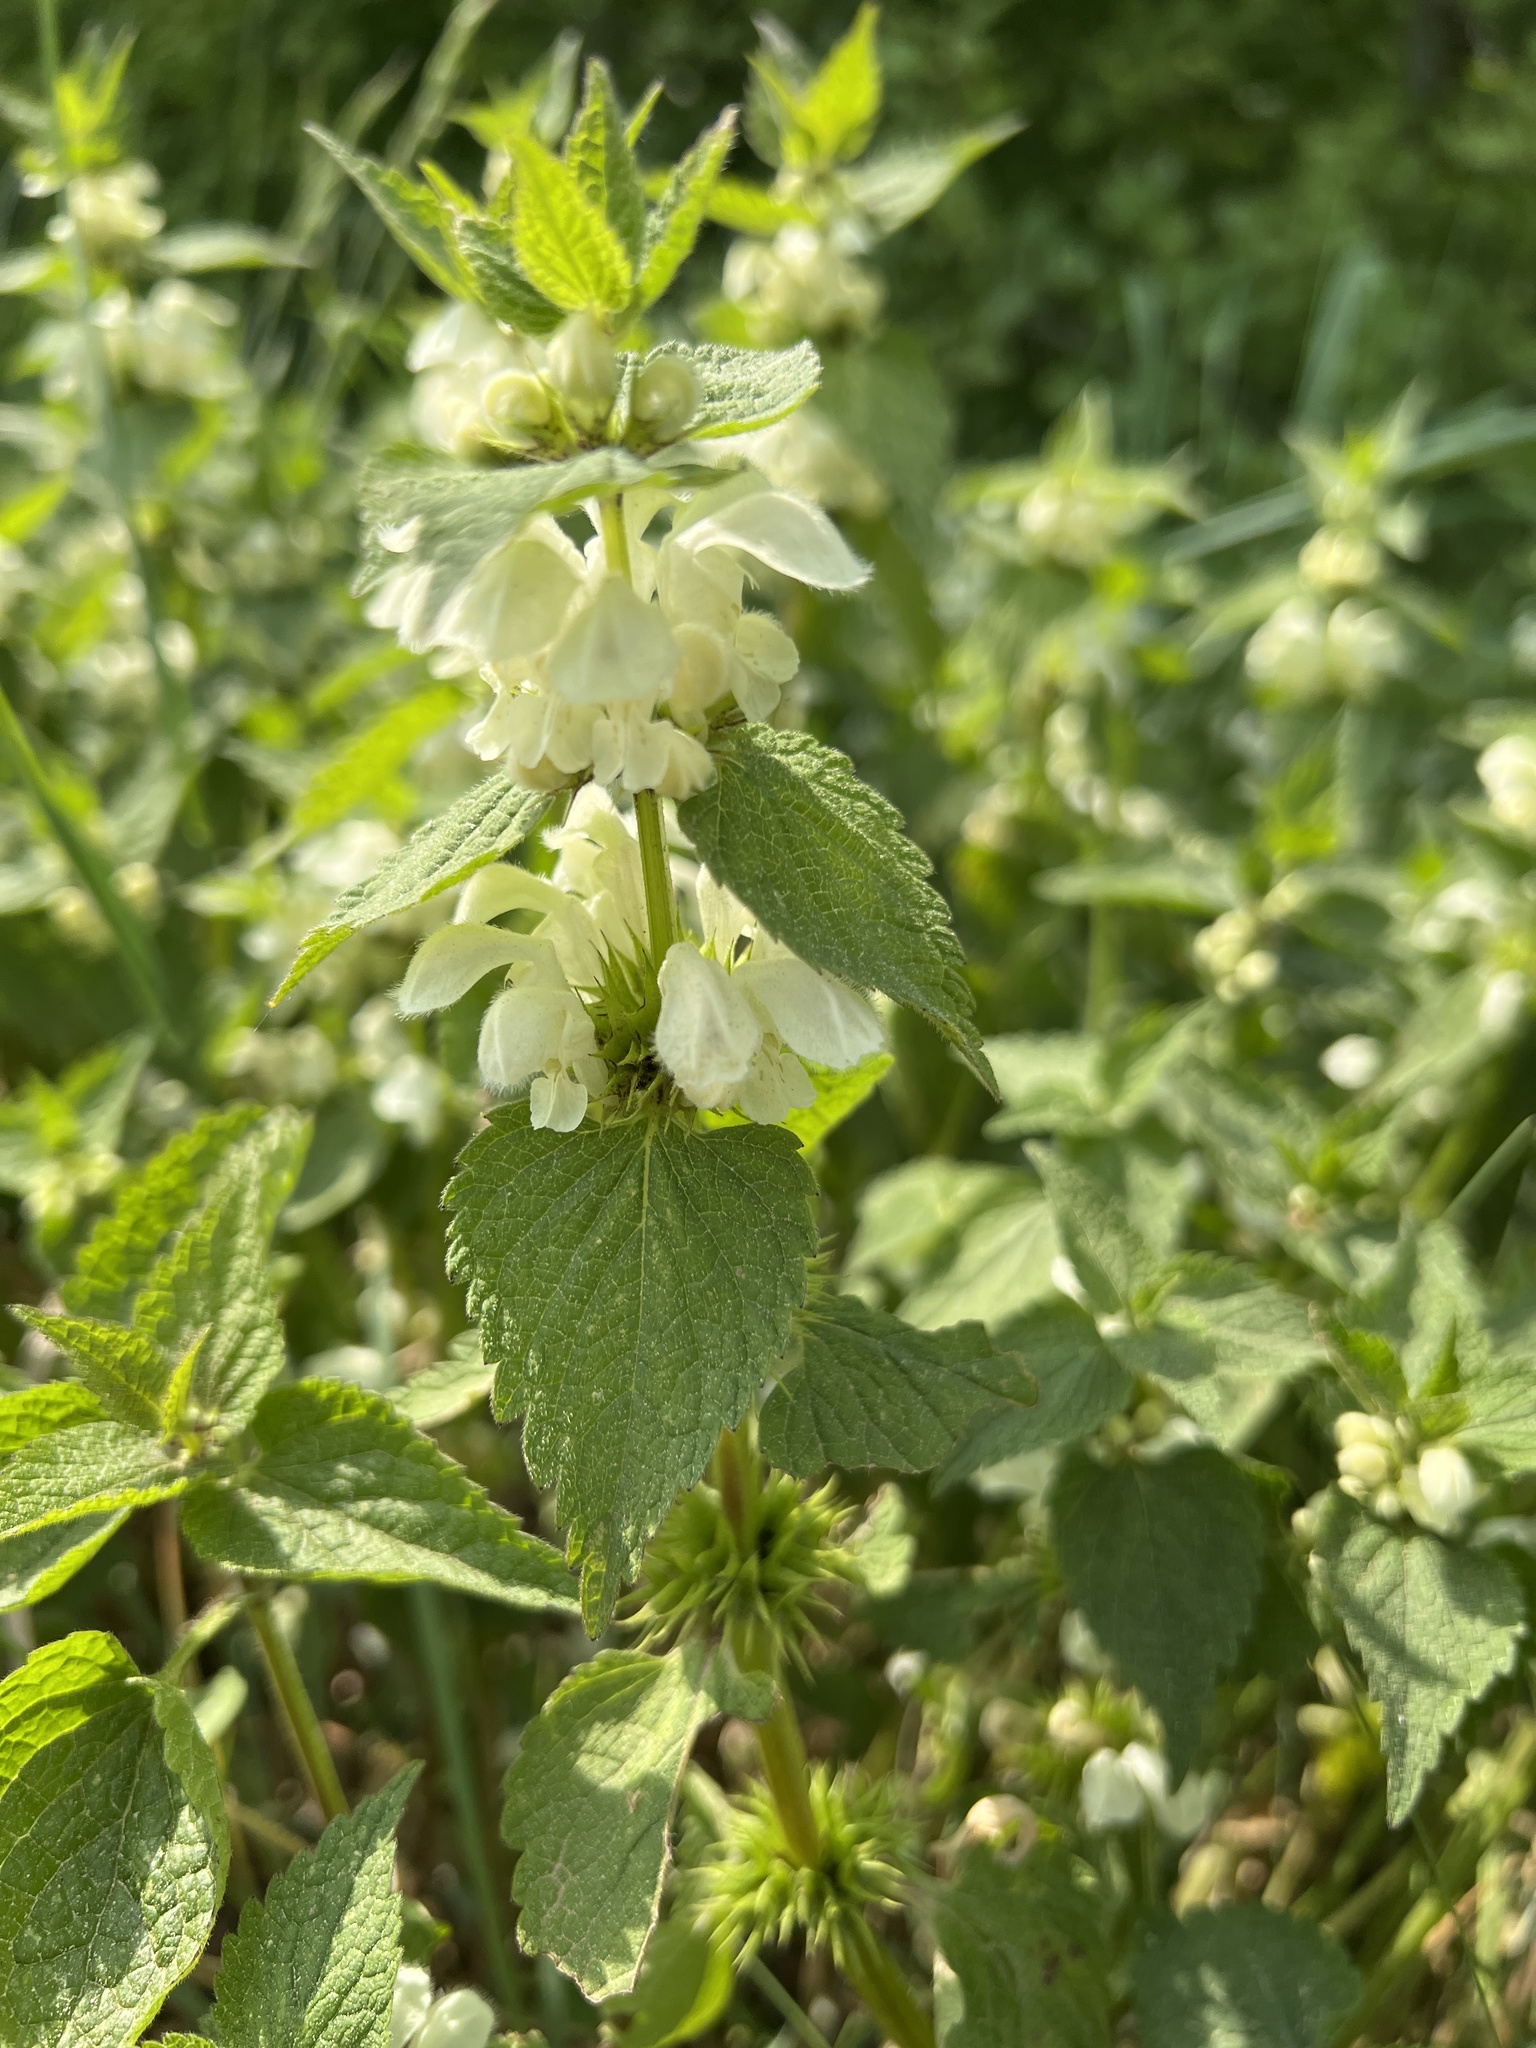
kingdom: Plantae
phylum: Tracheophyta
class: Magnoliopsida
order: Lamiales
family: Lamiaceae
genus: Lamium
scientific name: Lamium album
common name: White dead-nettle
